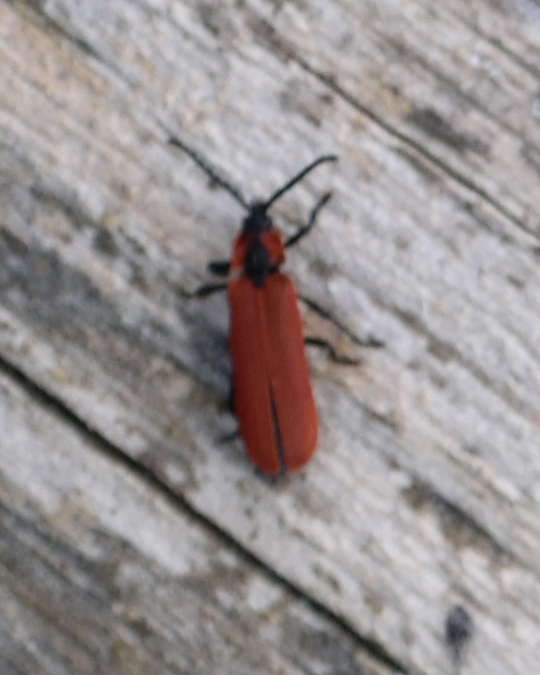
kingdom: Animalia
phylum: Arthropoda
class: Insecta
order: Coleoptera
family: Lycidae
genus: Lygistopterus
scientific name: Lygistopterus sanguineus
